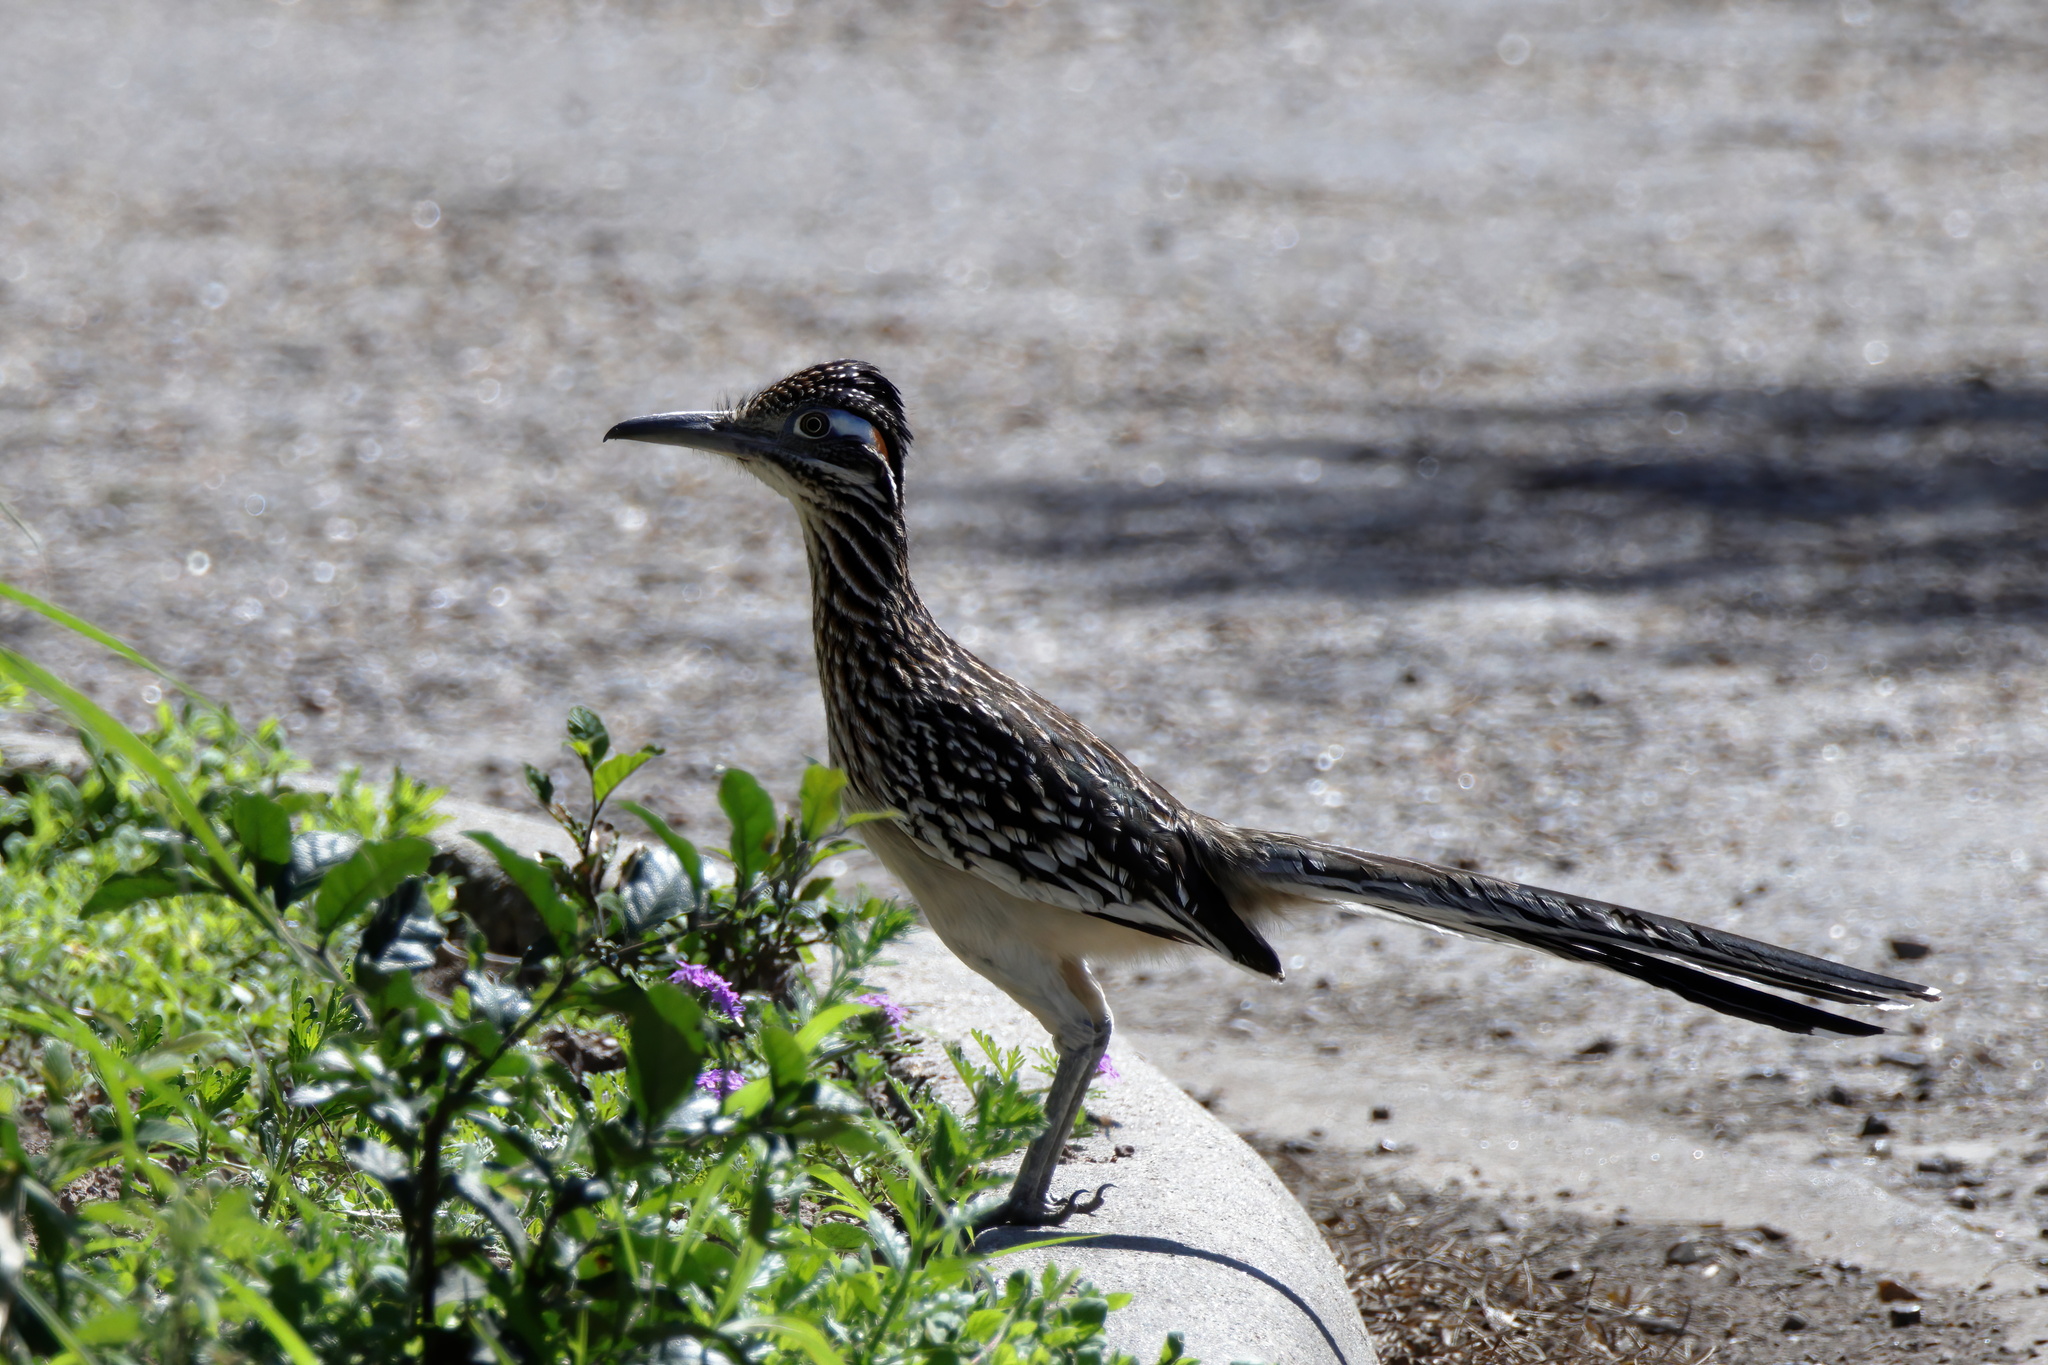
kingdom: Animalia
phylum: Chordata
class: Aves
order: Cuculiformes
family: Cuculidae
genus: Geococcyx
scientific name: Geococcyx californianus
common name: Greater roadrunner
